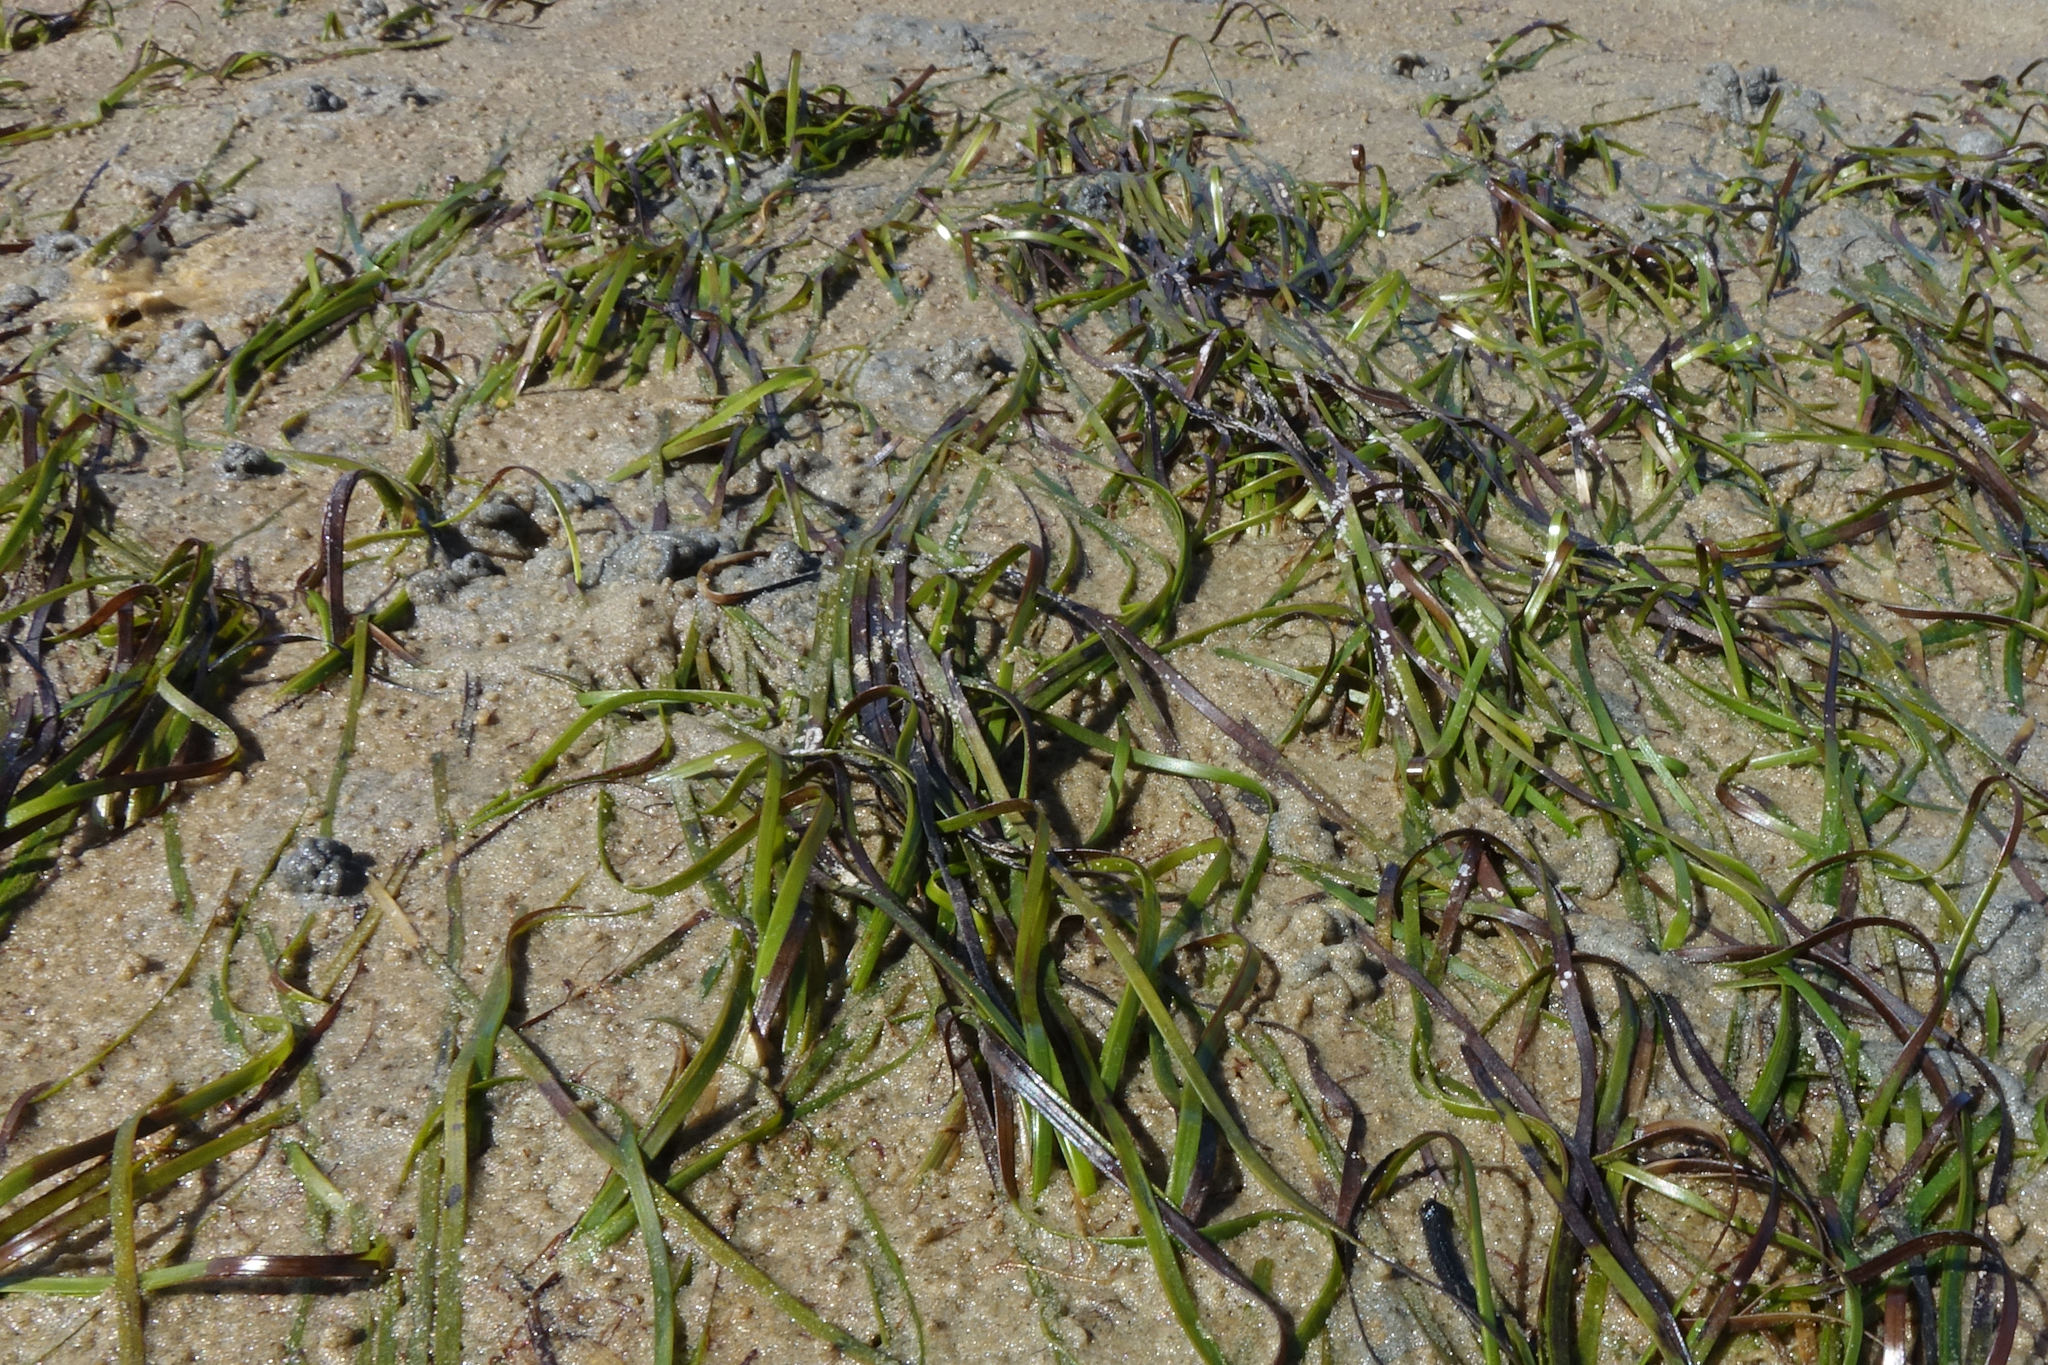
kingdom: Plantae
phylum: Tracheophyta
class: Liliopsida
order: Alismatales
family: Zosteraceae
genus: Zostera
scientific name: Zostera novazelandica
